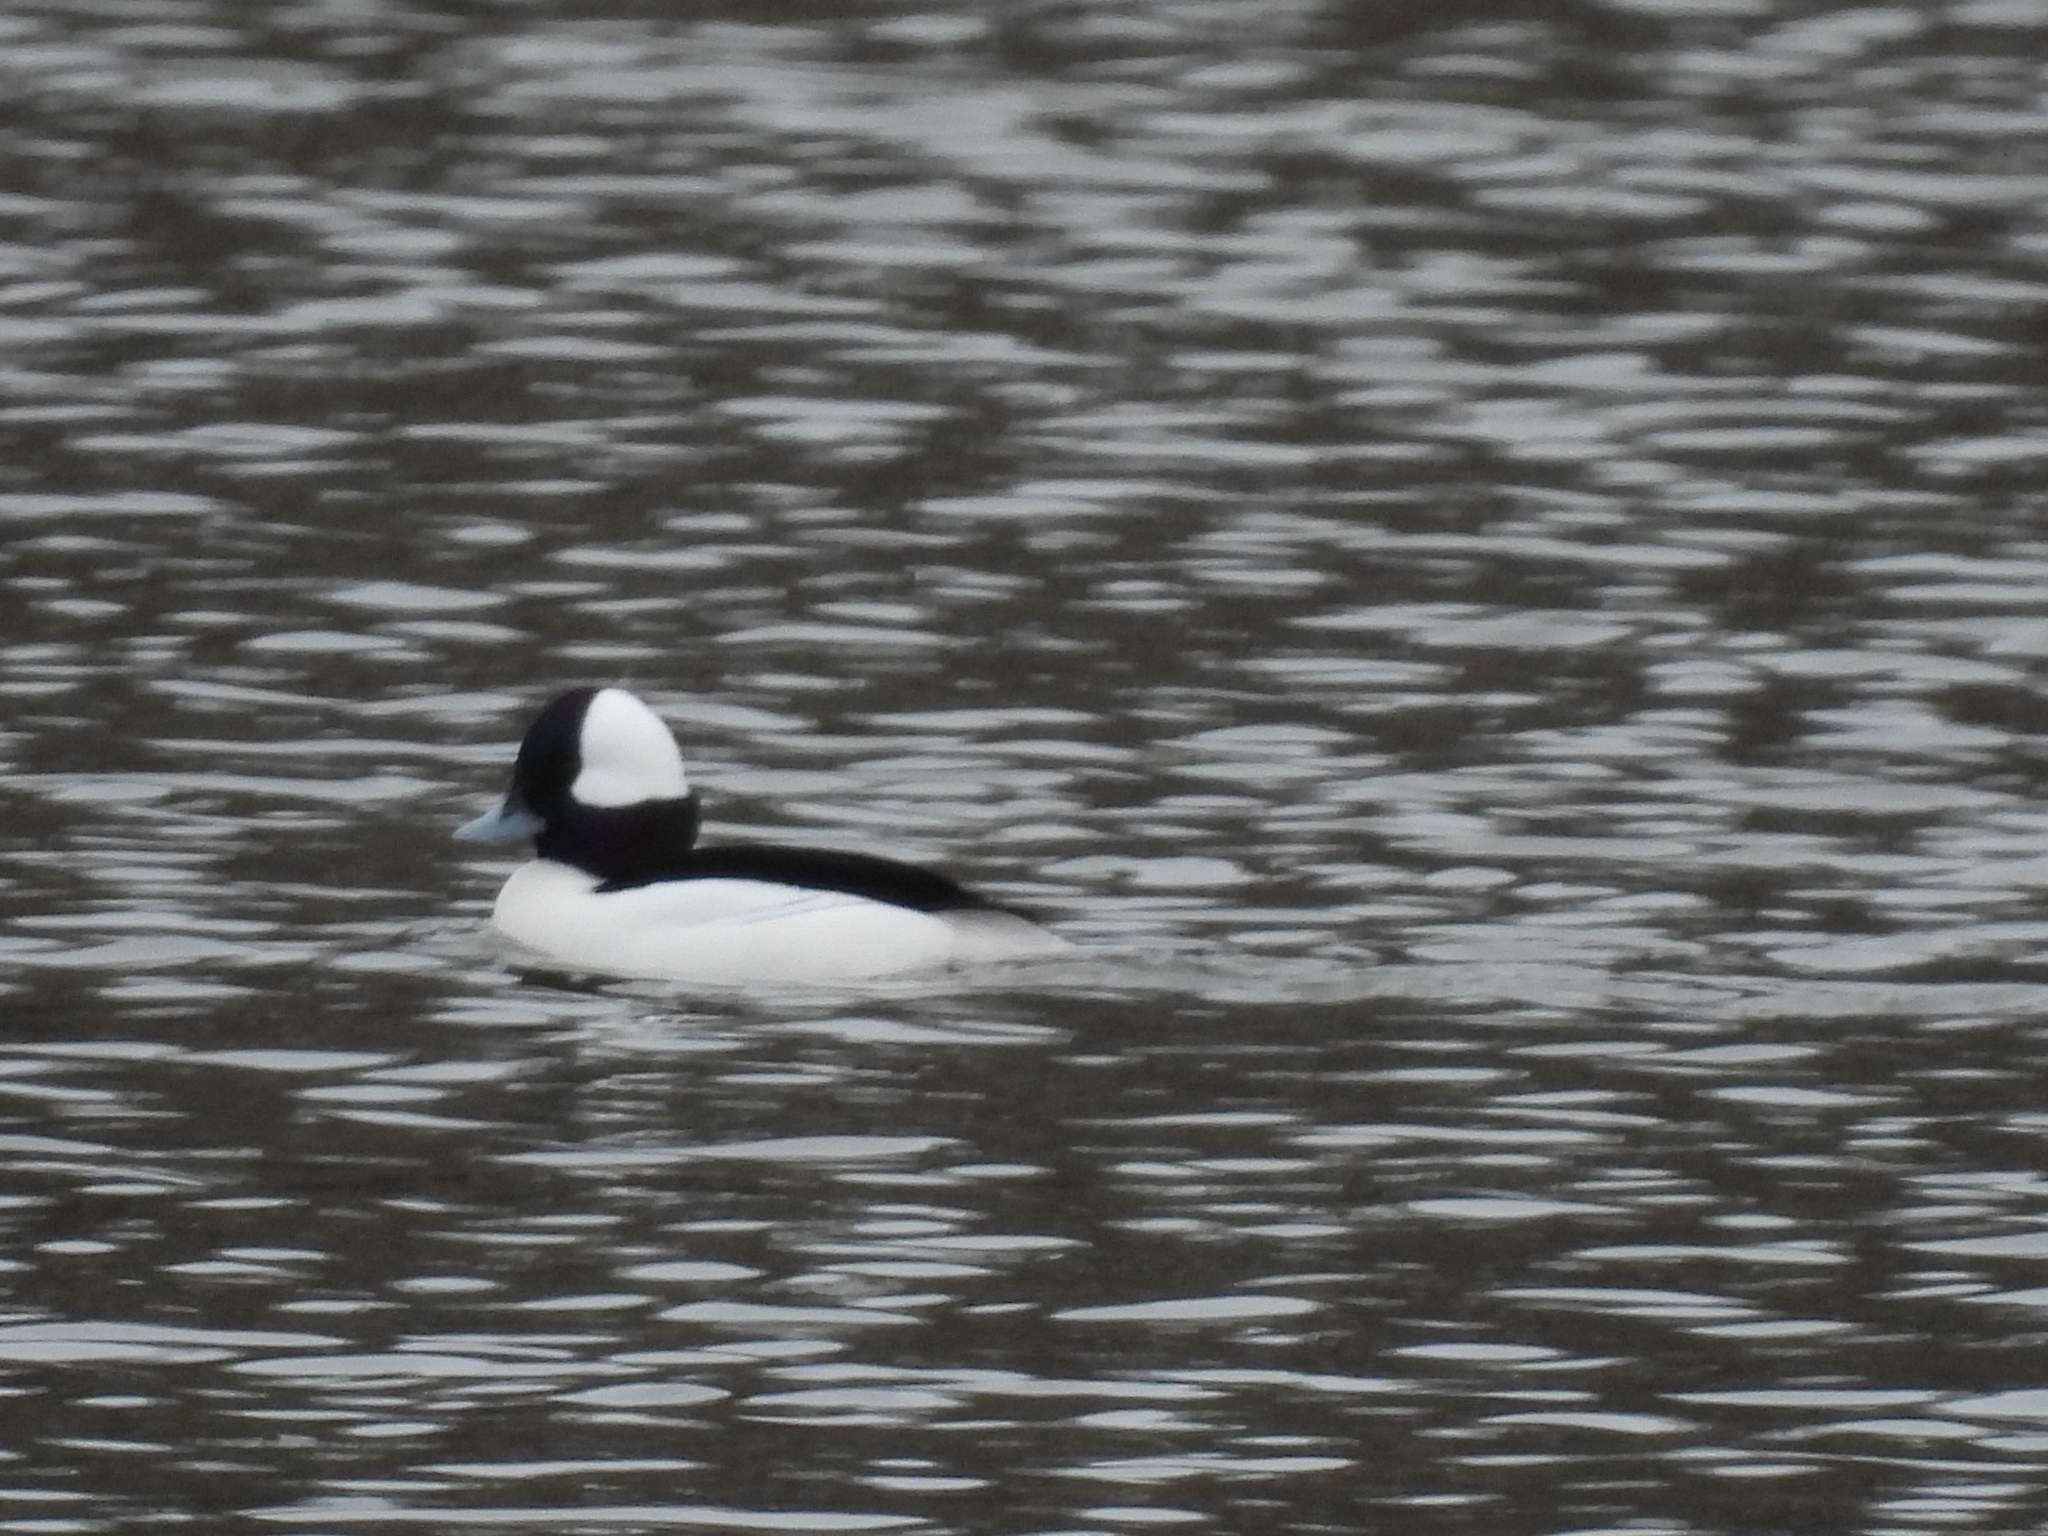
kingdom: Animalia
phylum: Chordata
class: Aves
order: Anseriformes
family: Anatidae
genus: Bucephala
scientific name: Bucephala albeola
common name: Bufflehead
